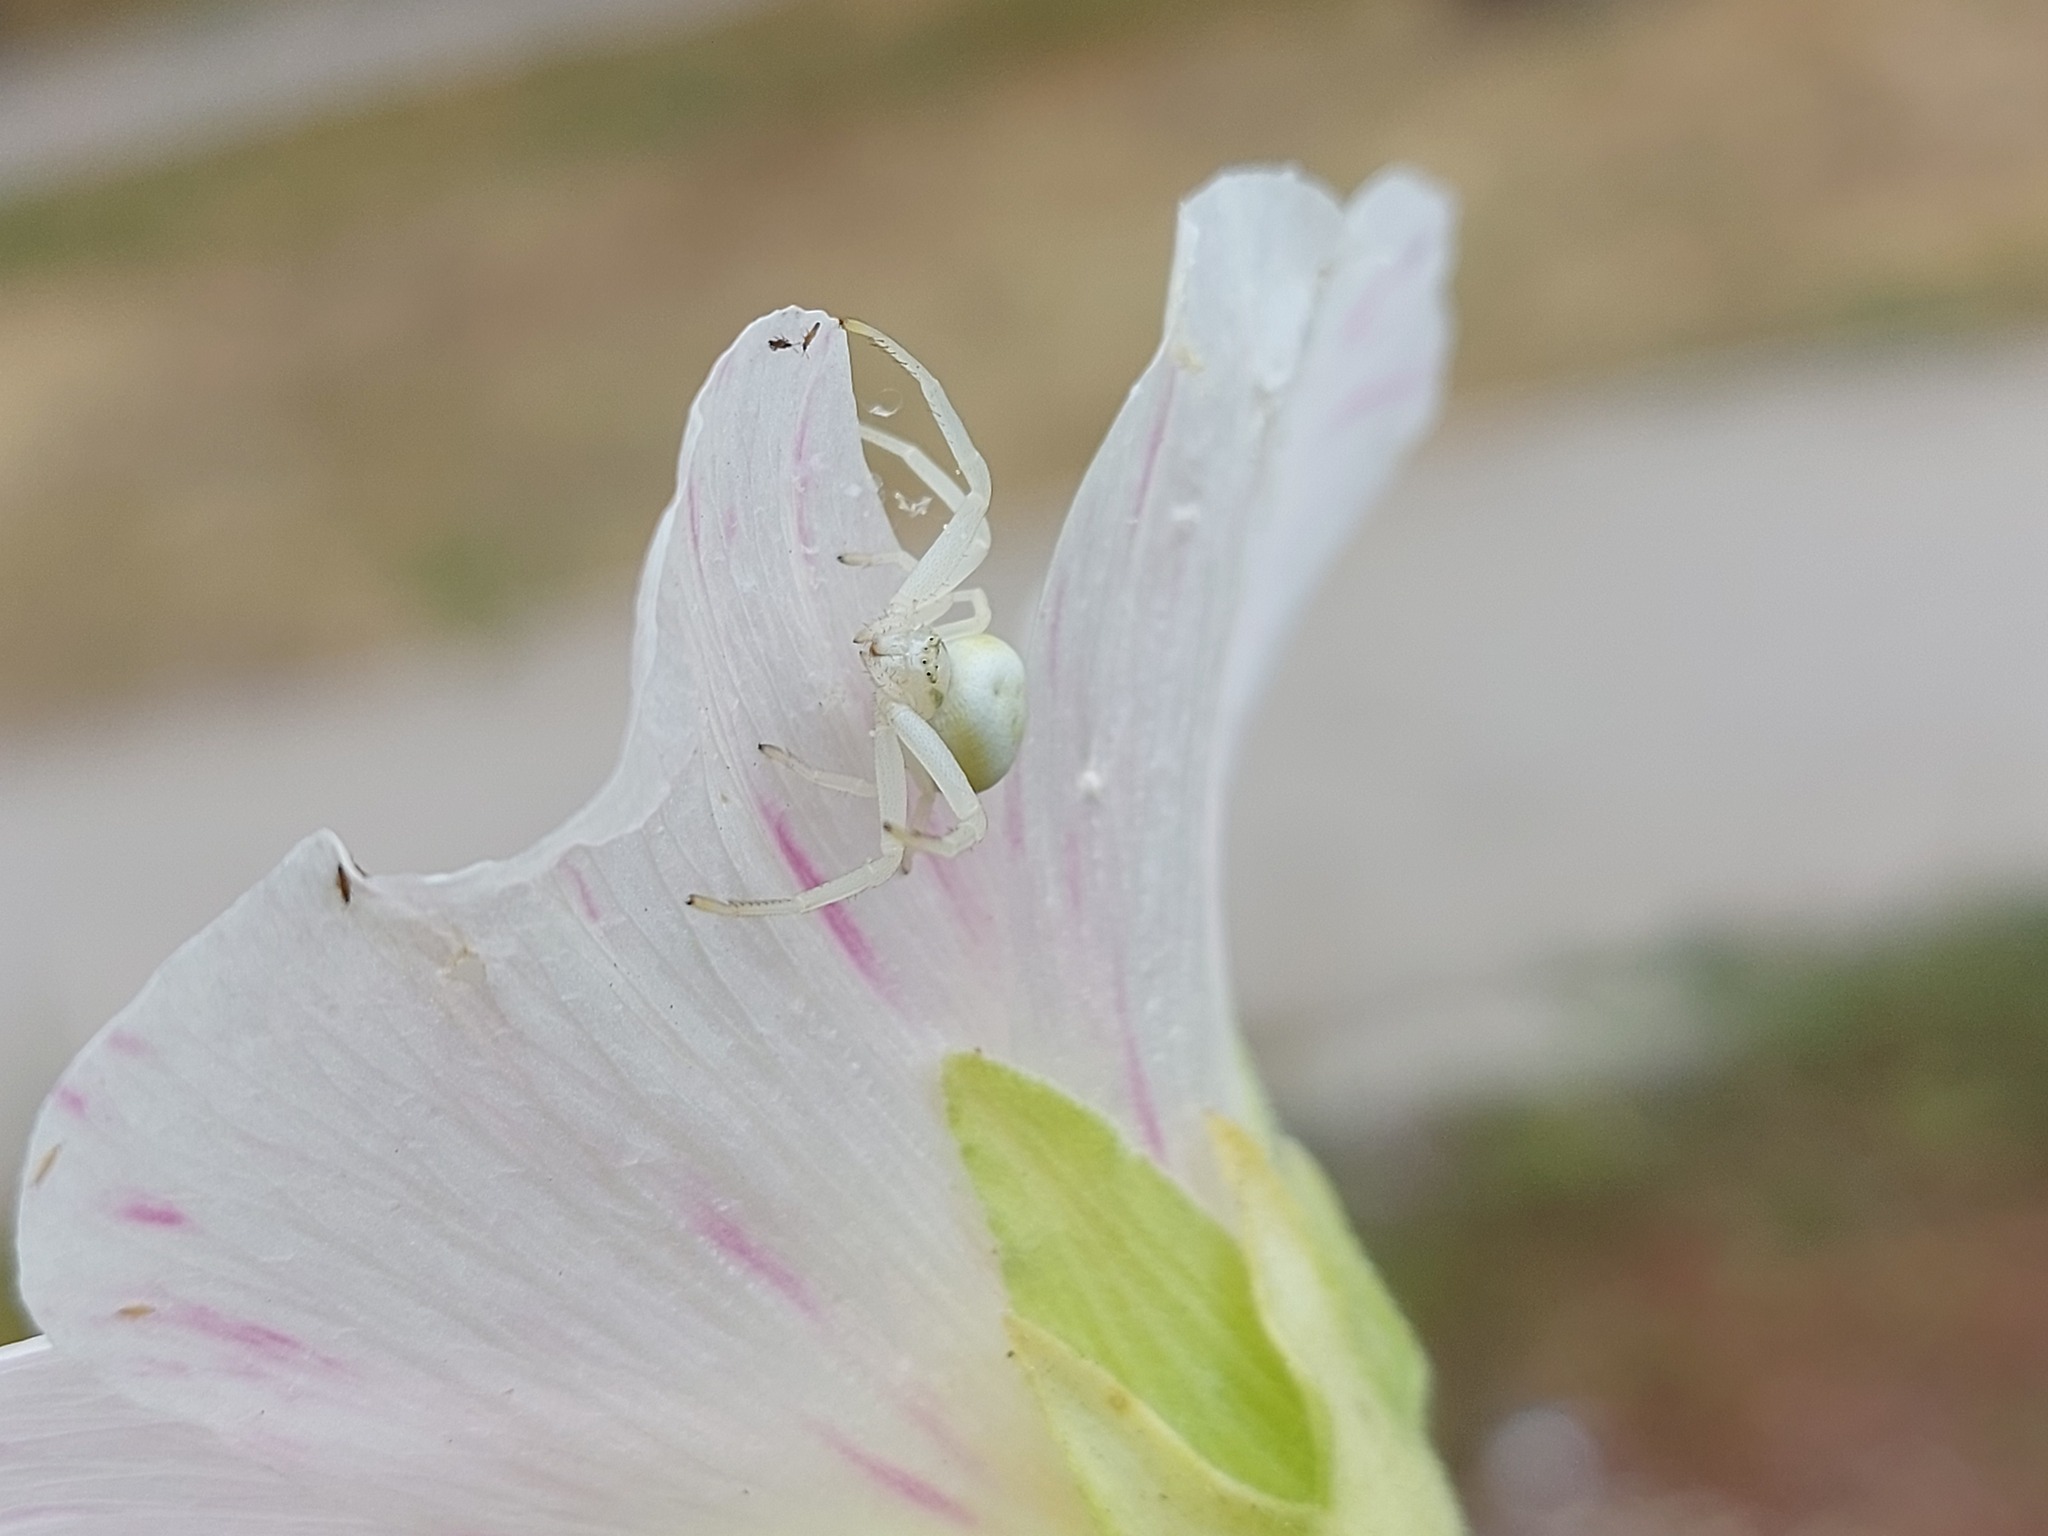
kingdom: Animalia
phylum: Arthropoda
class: Arachnida
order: Araneae
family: Thomisidae
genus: Misumena
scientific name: Misumena vatia
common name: Goldenrod crab spider
